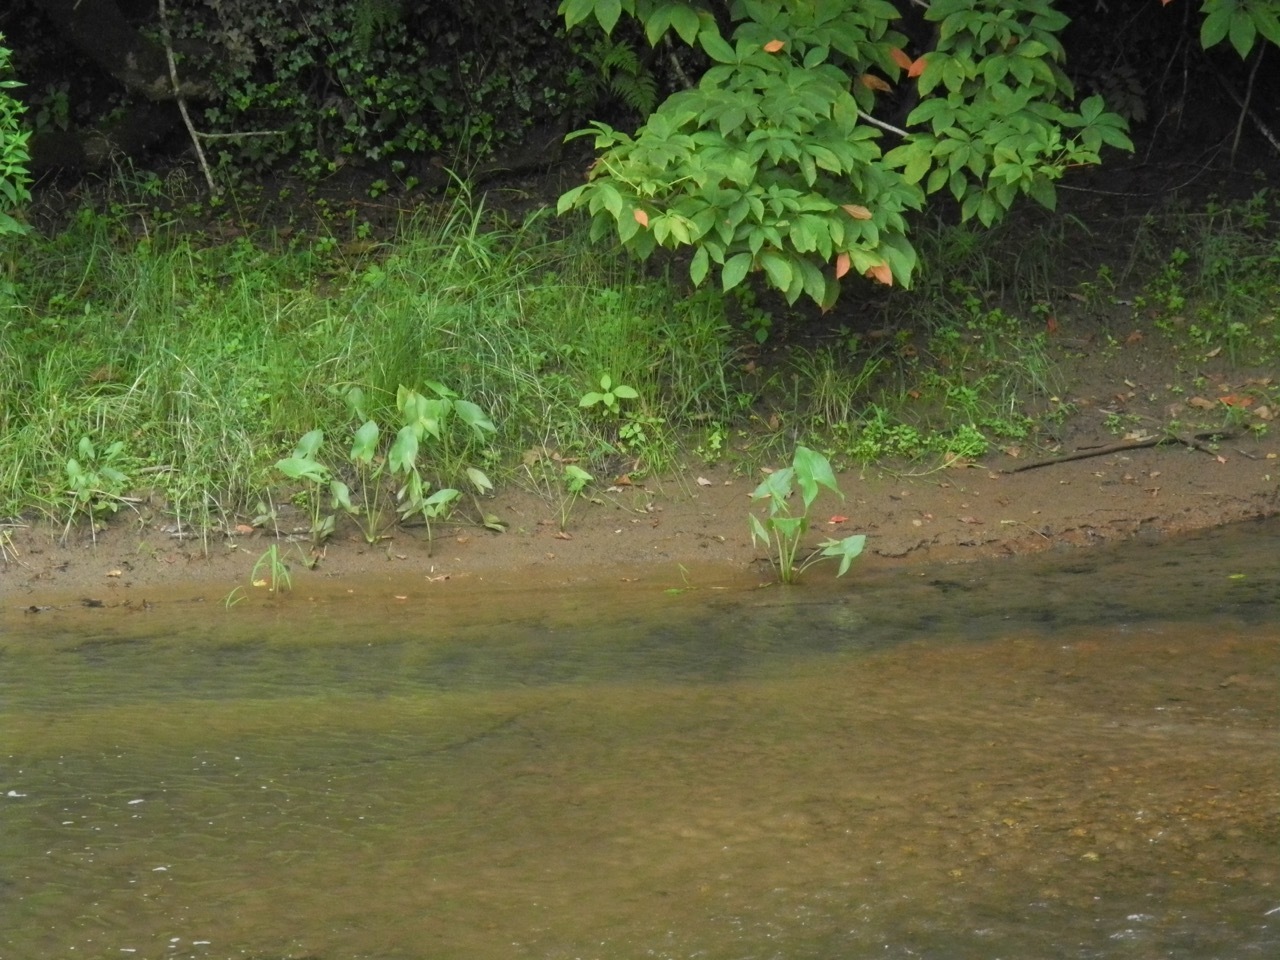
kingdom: Plantae
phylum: Tracheophyta
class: Liliopsida
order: Alismatales
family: Araceae
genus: Peltandra
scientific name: Peltandra virginica
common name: Arrow arum
